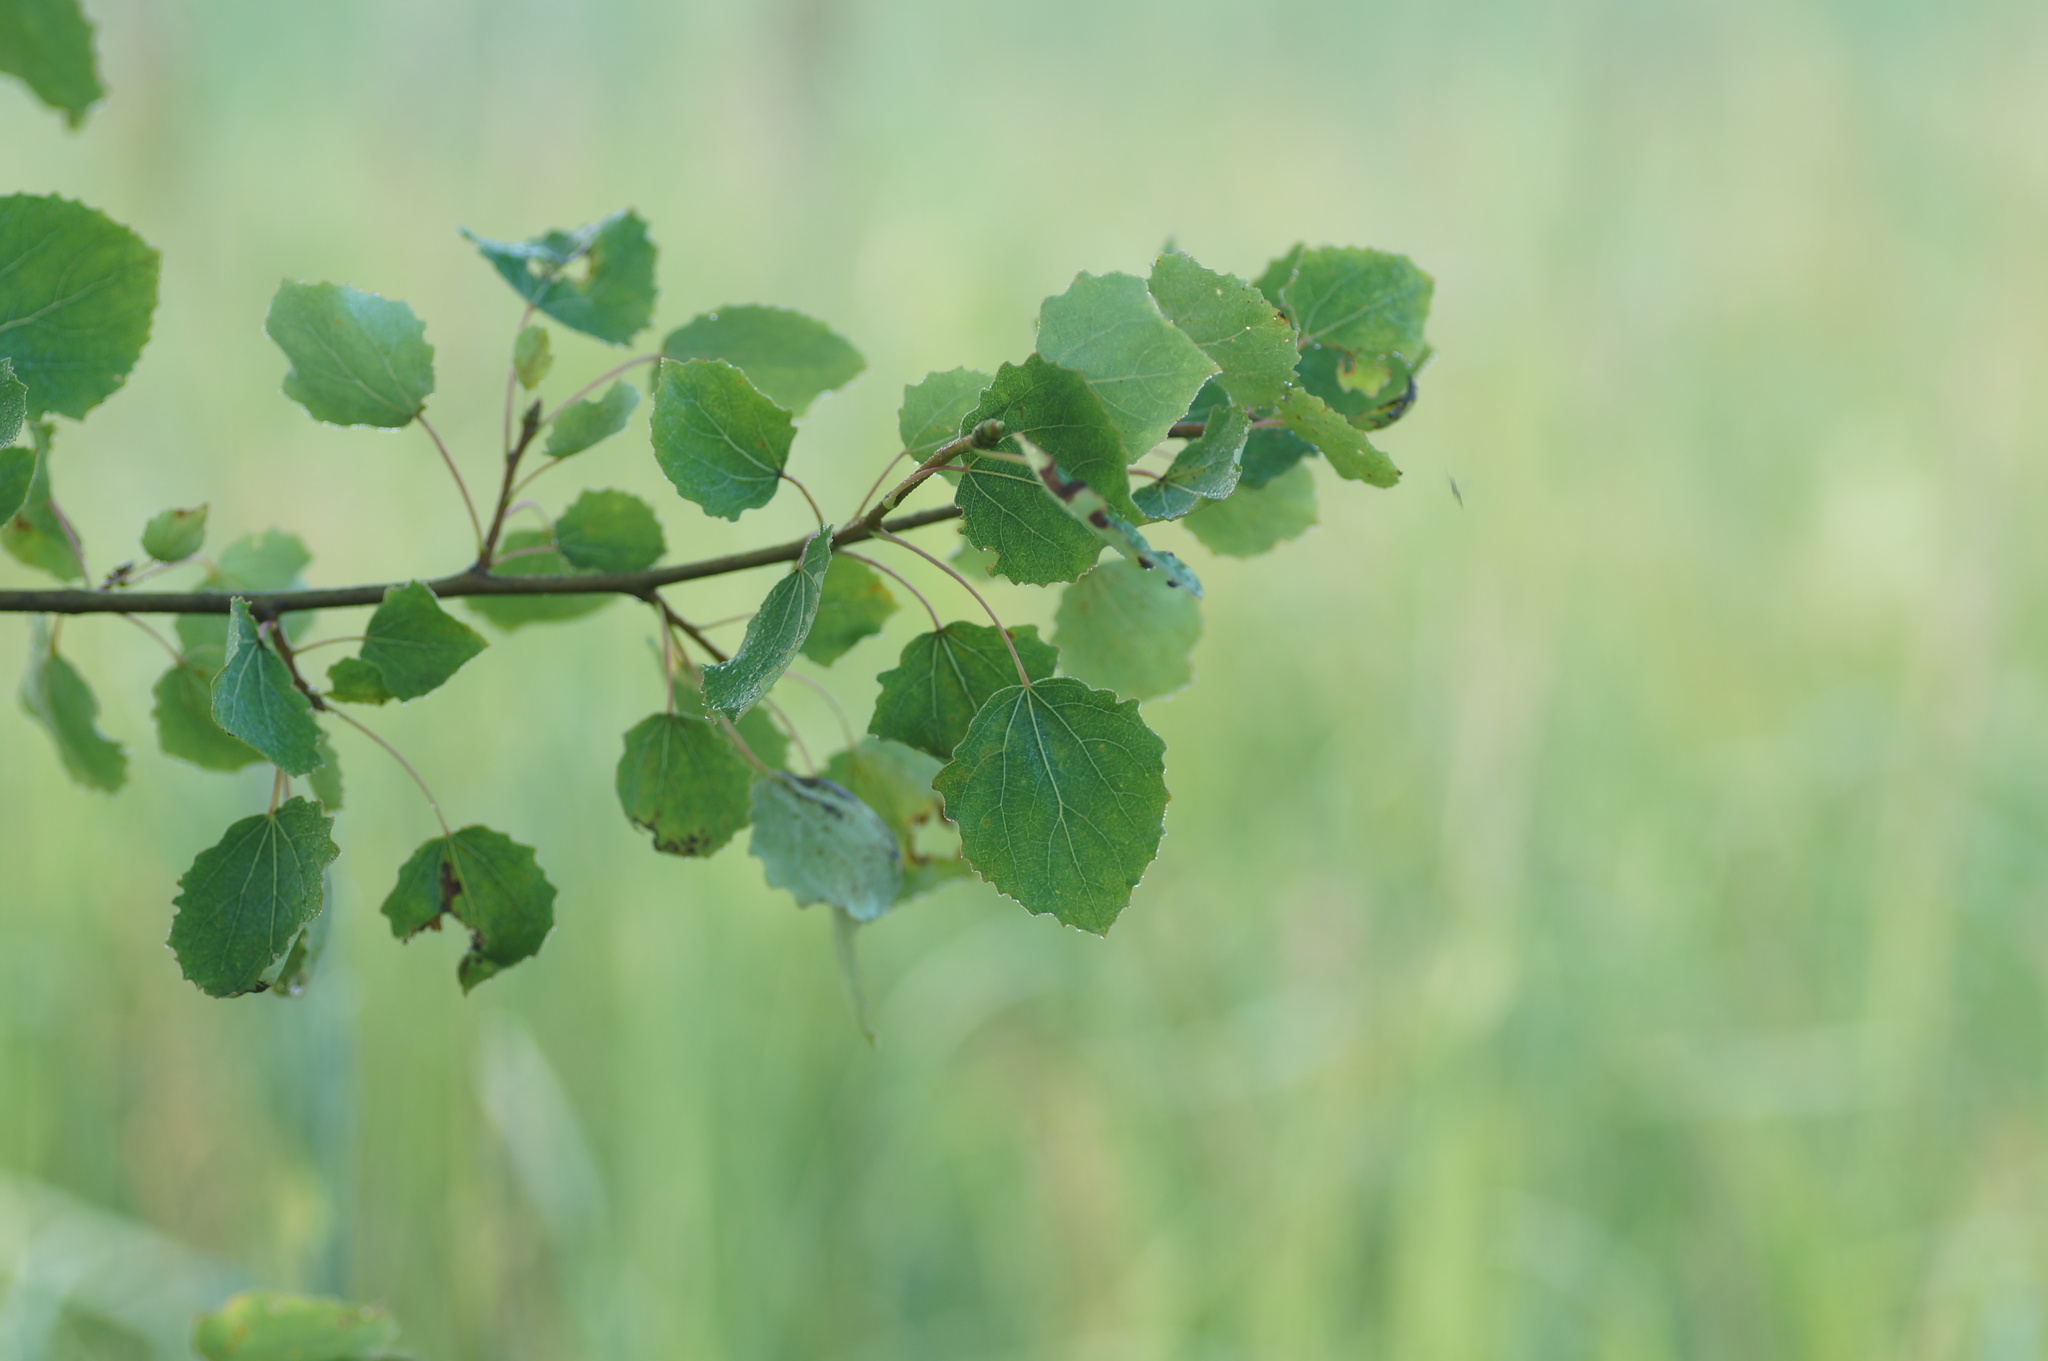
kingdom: Plantae
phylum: Tracheophyta
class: Magnoliopsida
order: Malpighiales
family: Salicaceae
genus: Populus
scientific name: Populus tremula
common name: European aspen
